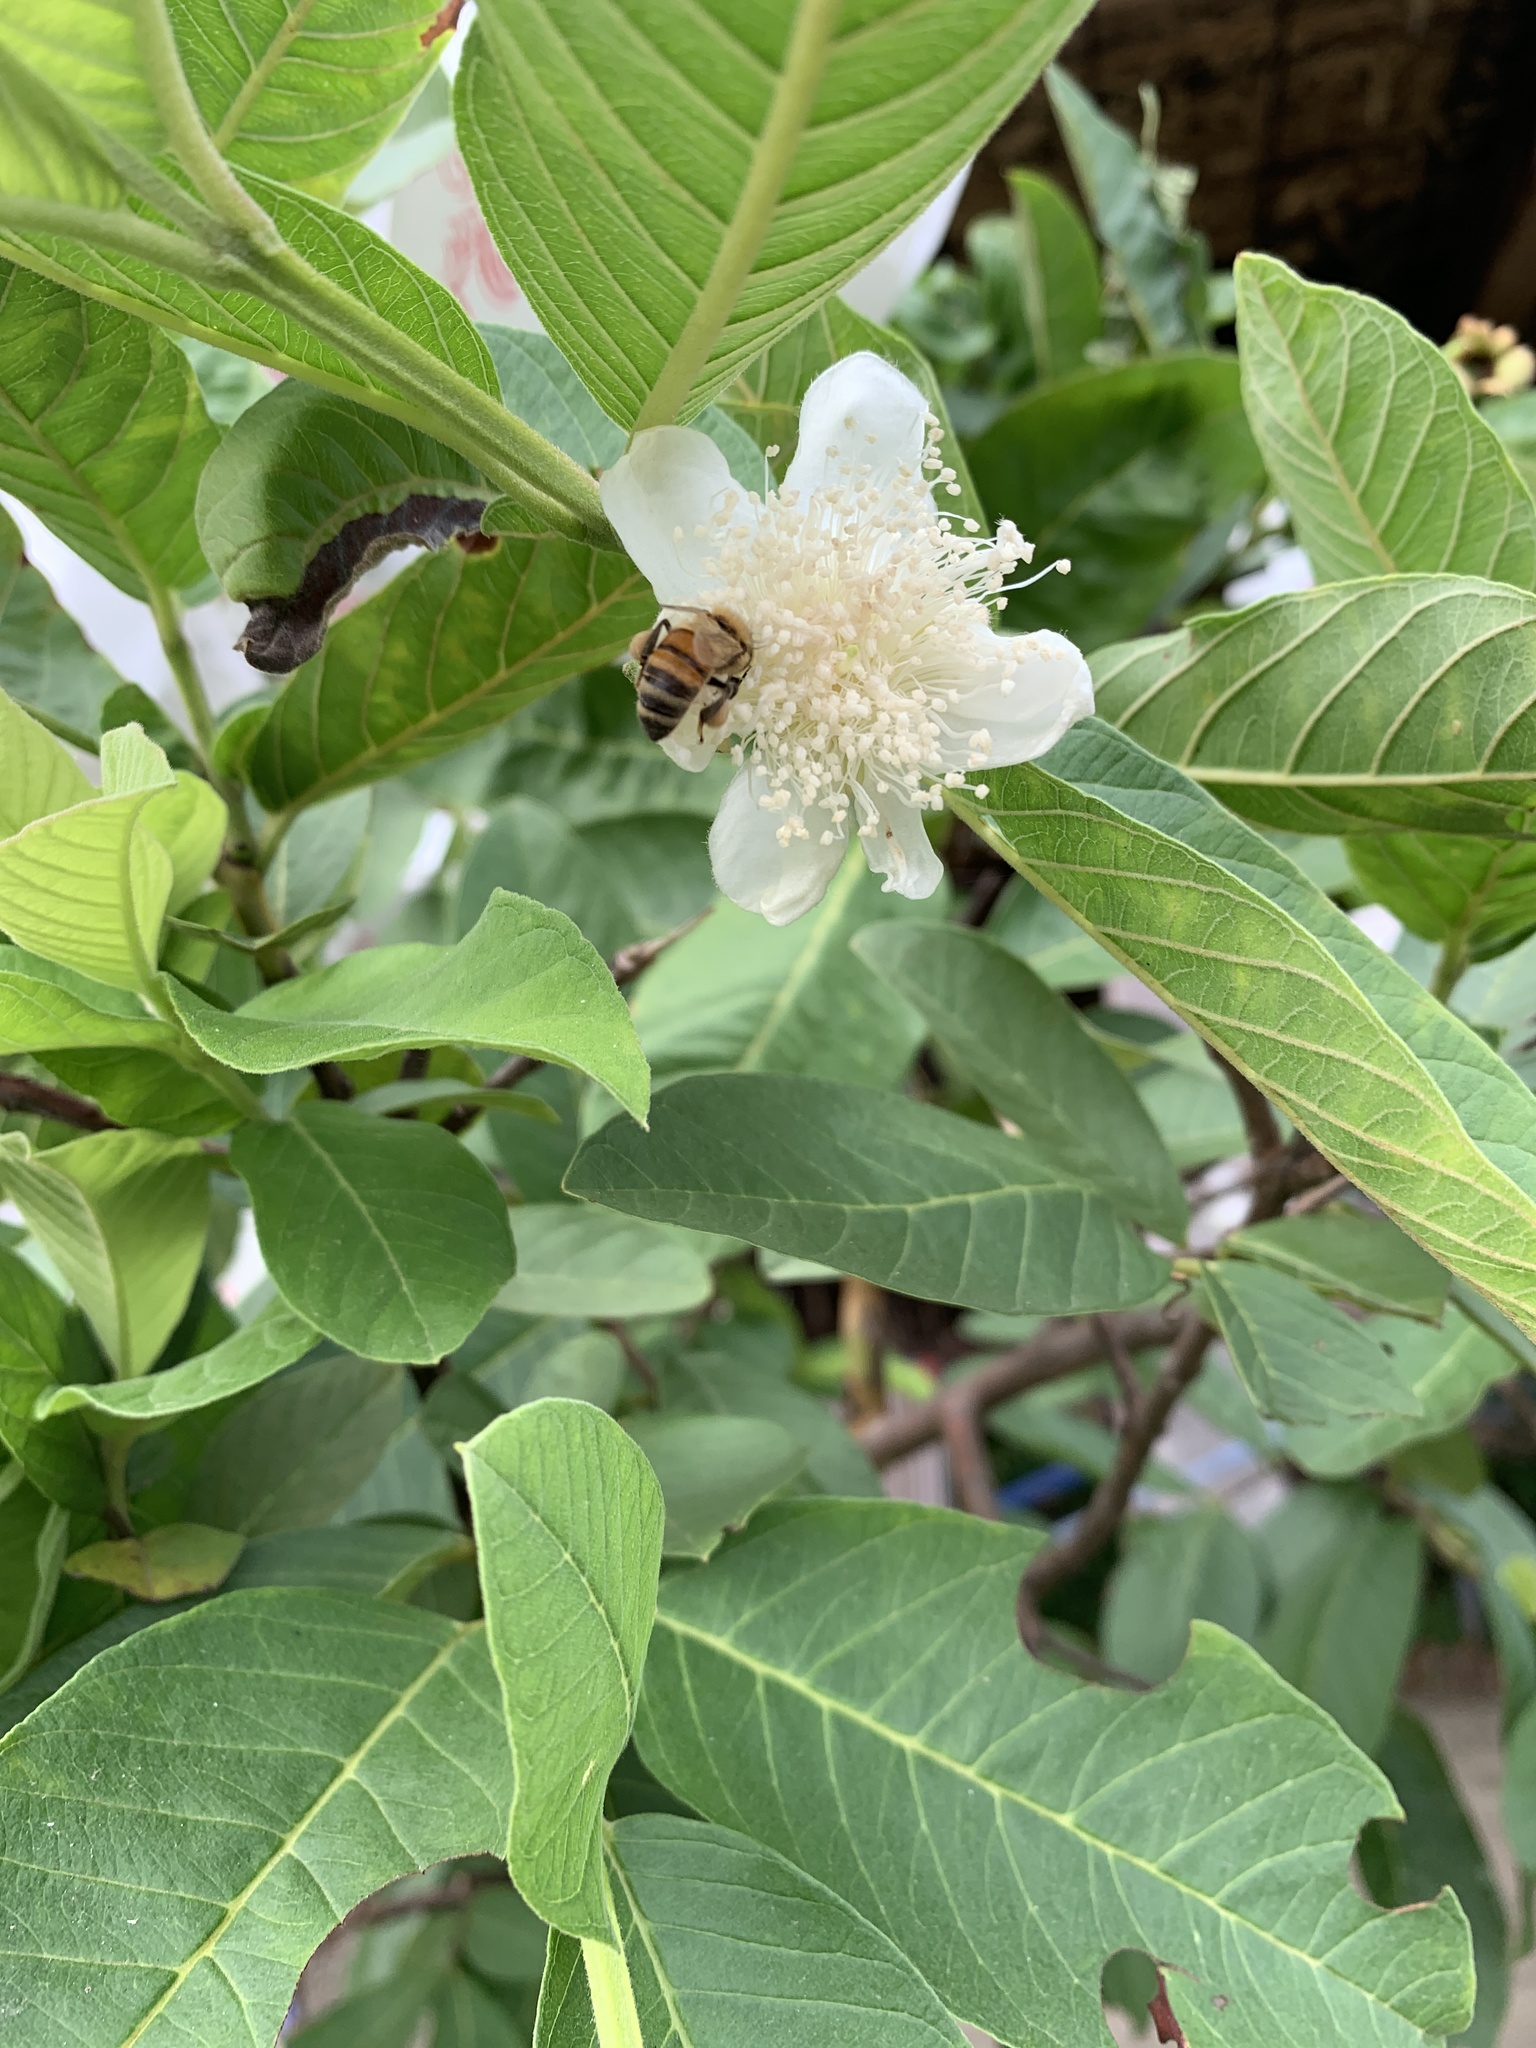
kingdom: Animalia
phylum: Arthropoda
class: Insecta
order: Hymenoptera
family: Apidae
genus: Apis
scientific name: Apis mellifera
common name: Honey bee
